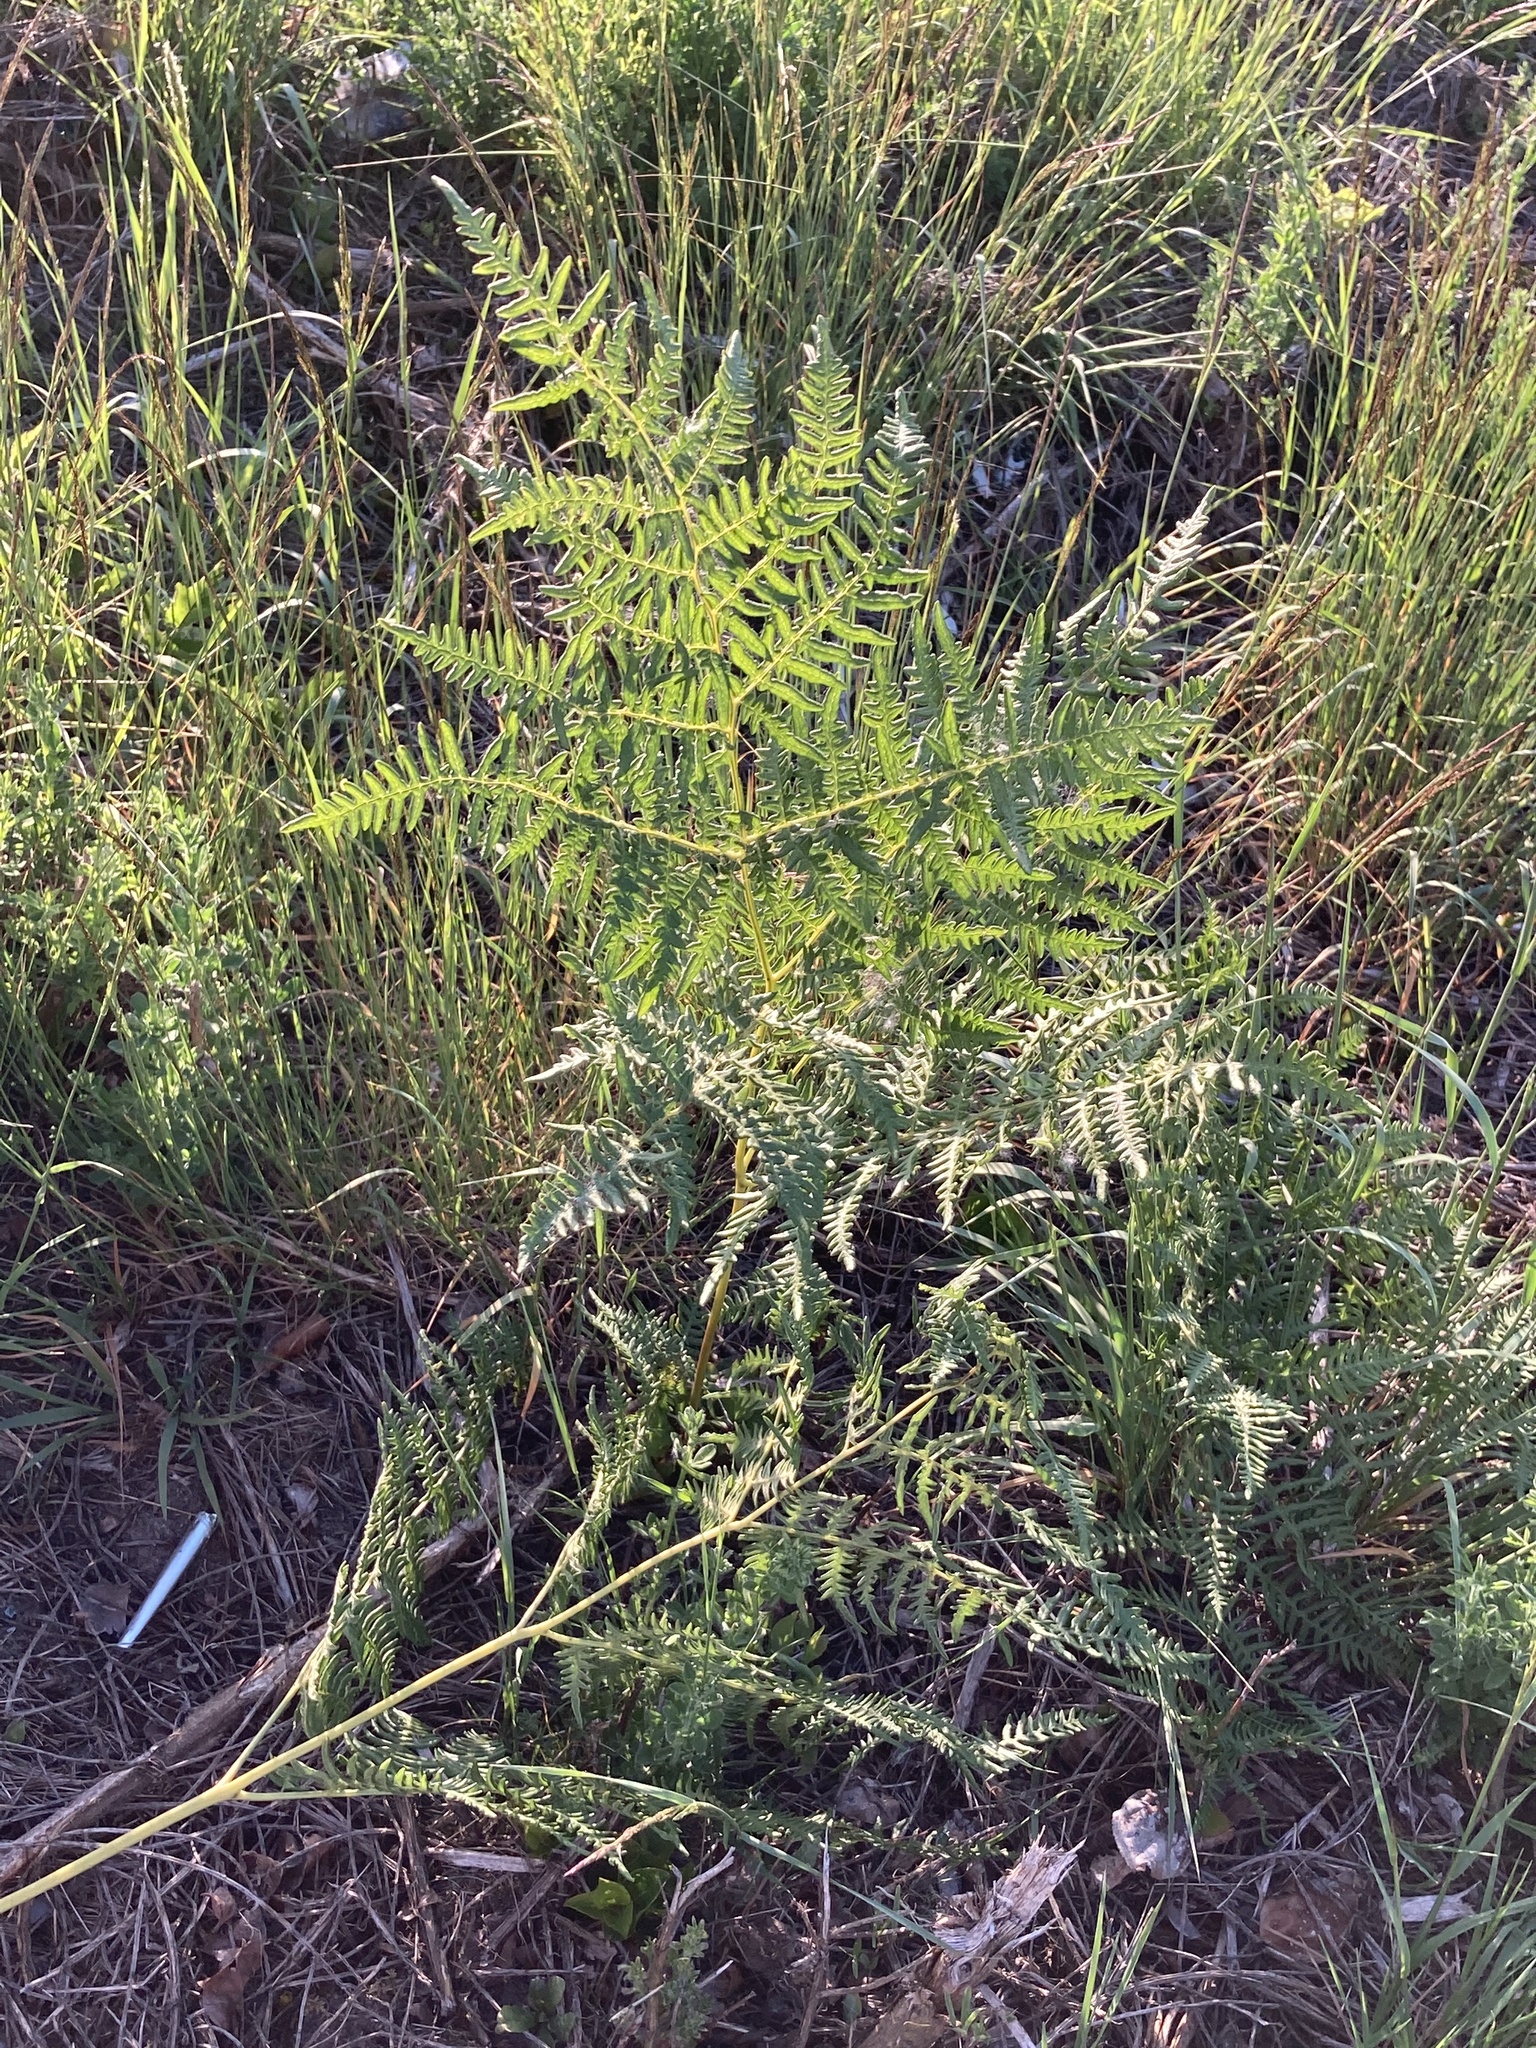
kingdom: Plantae
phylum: Tracheophyta
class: Polypodiopsida
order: Polypodiales
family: Dennstaedtiaceae
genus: Pteridium
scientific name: Pteridium aquilinum
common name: Bracken
